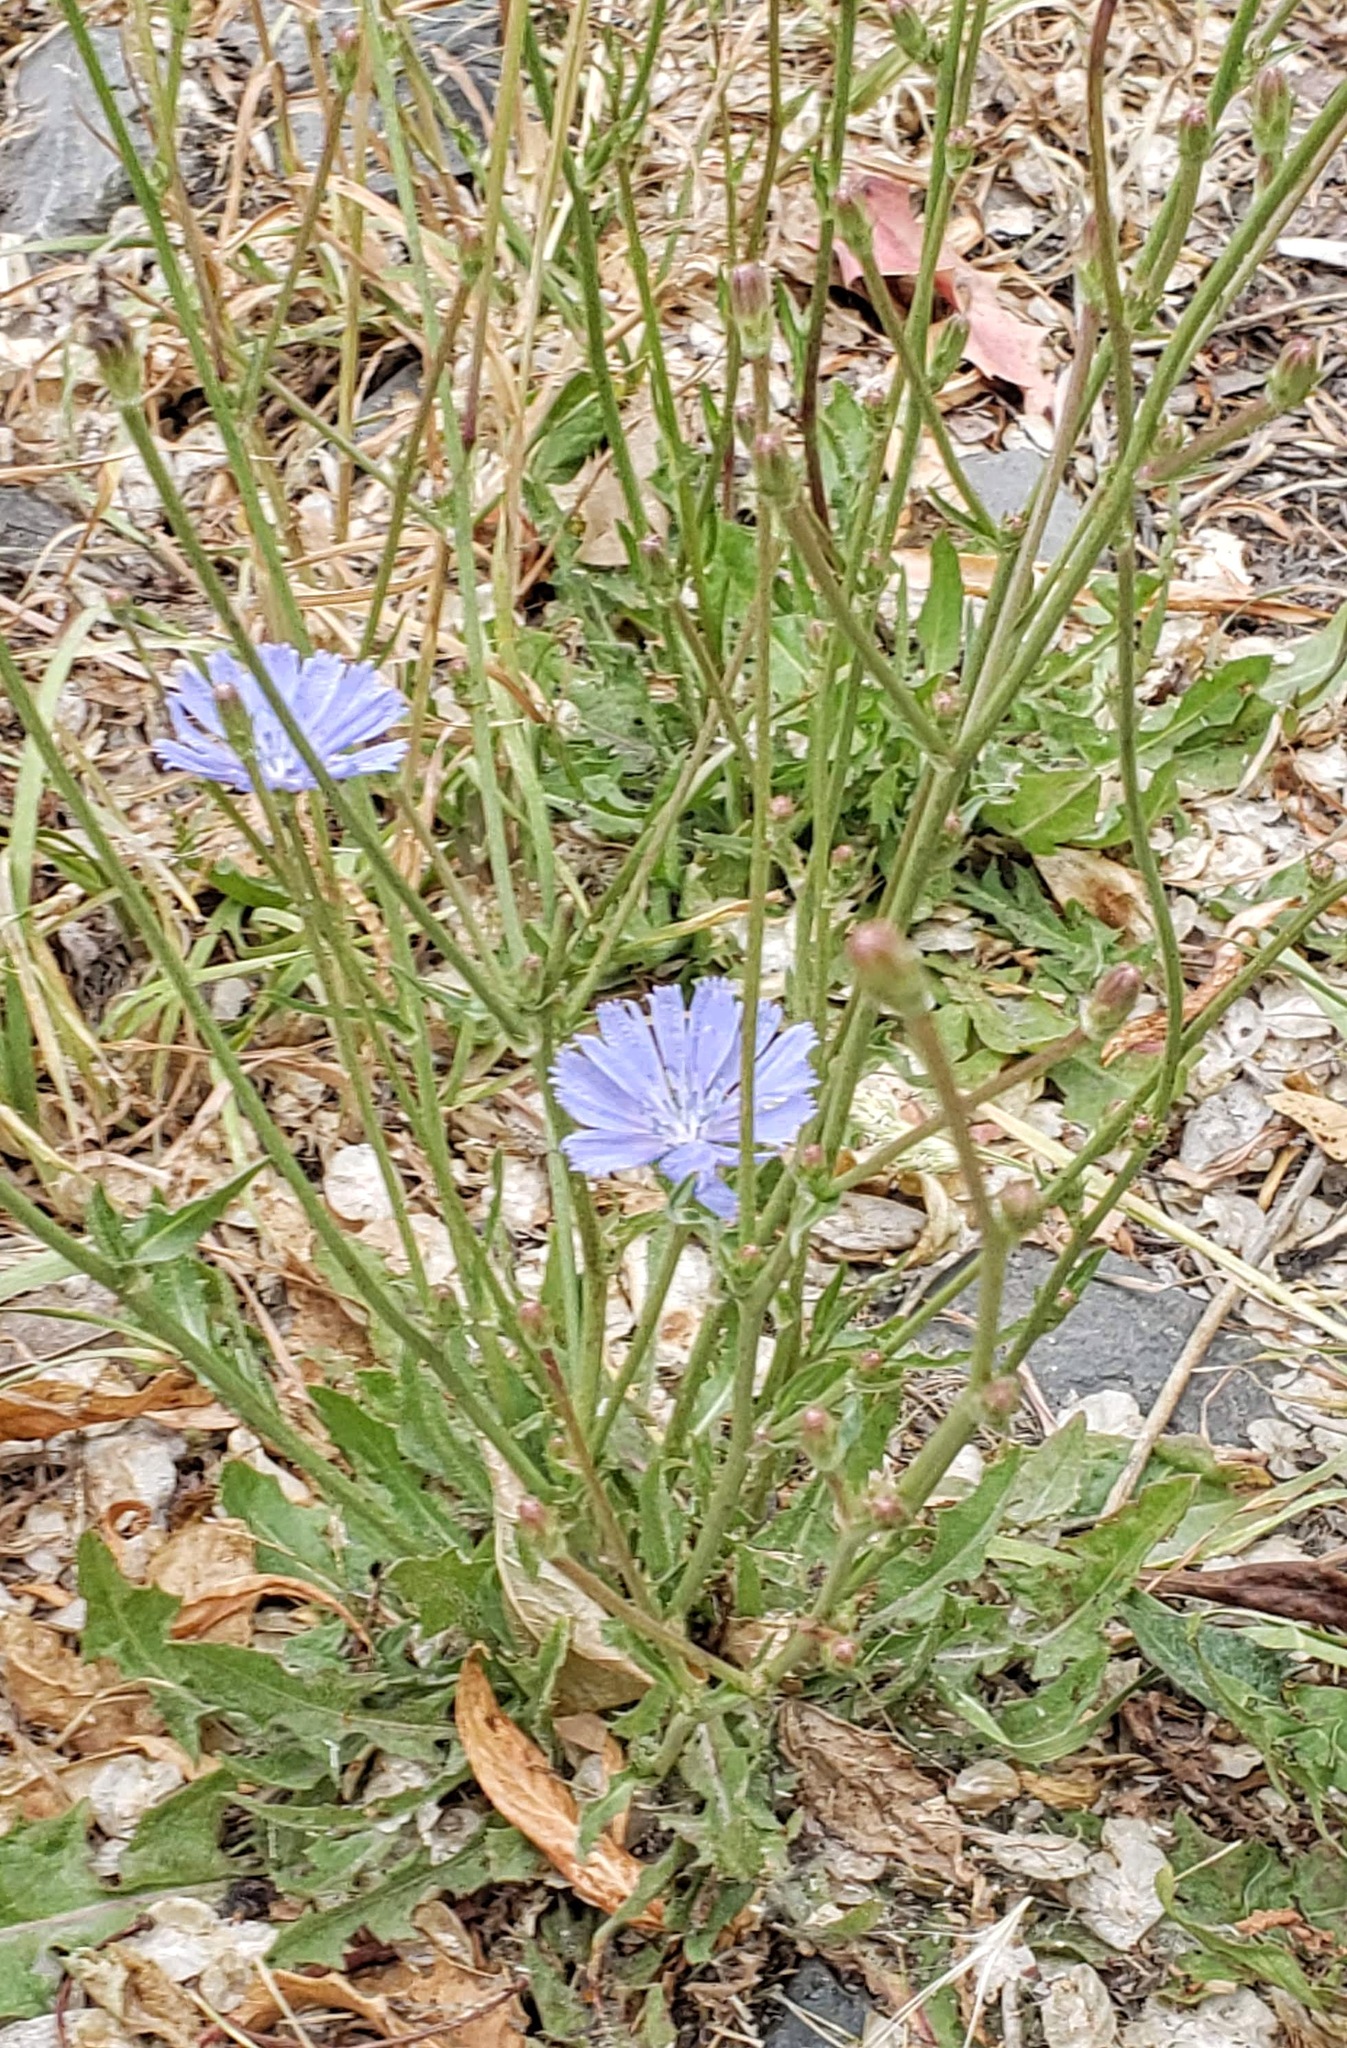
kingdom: Plantae
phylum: Tracheophyta
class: Magnoliopsida
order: Asterales
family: Asteraceae
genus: Cichorium
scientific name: Cichorium intybus
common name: Chicory
